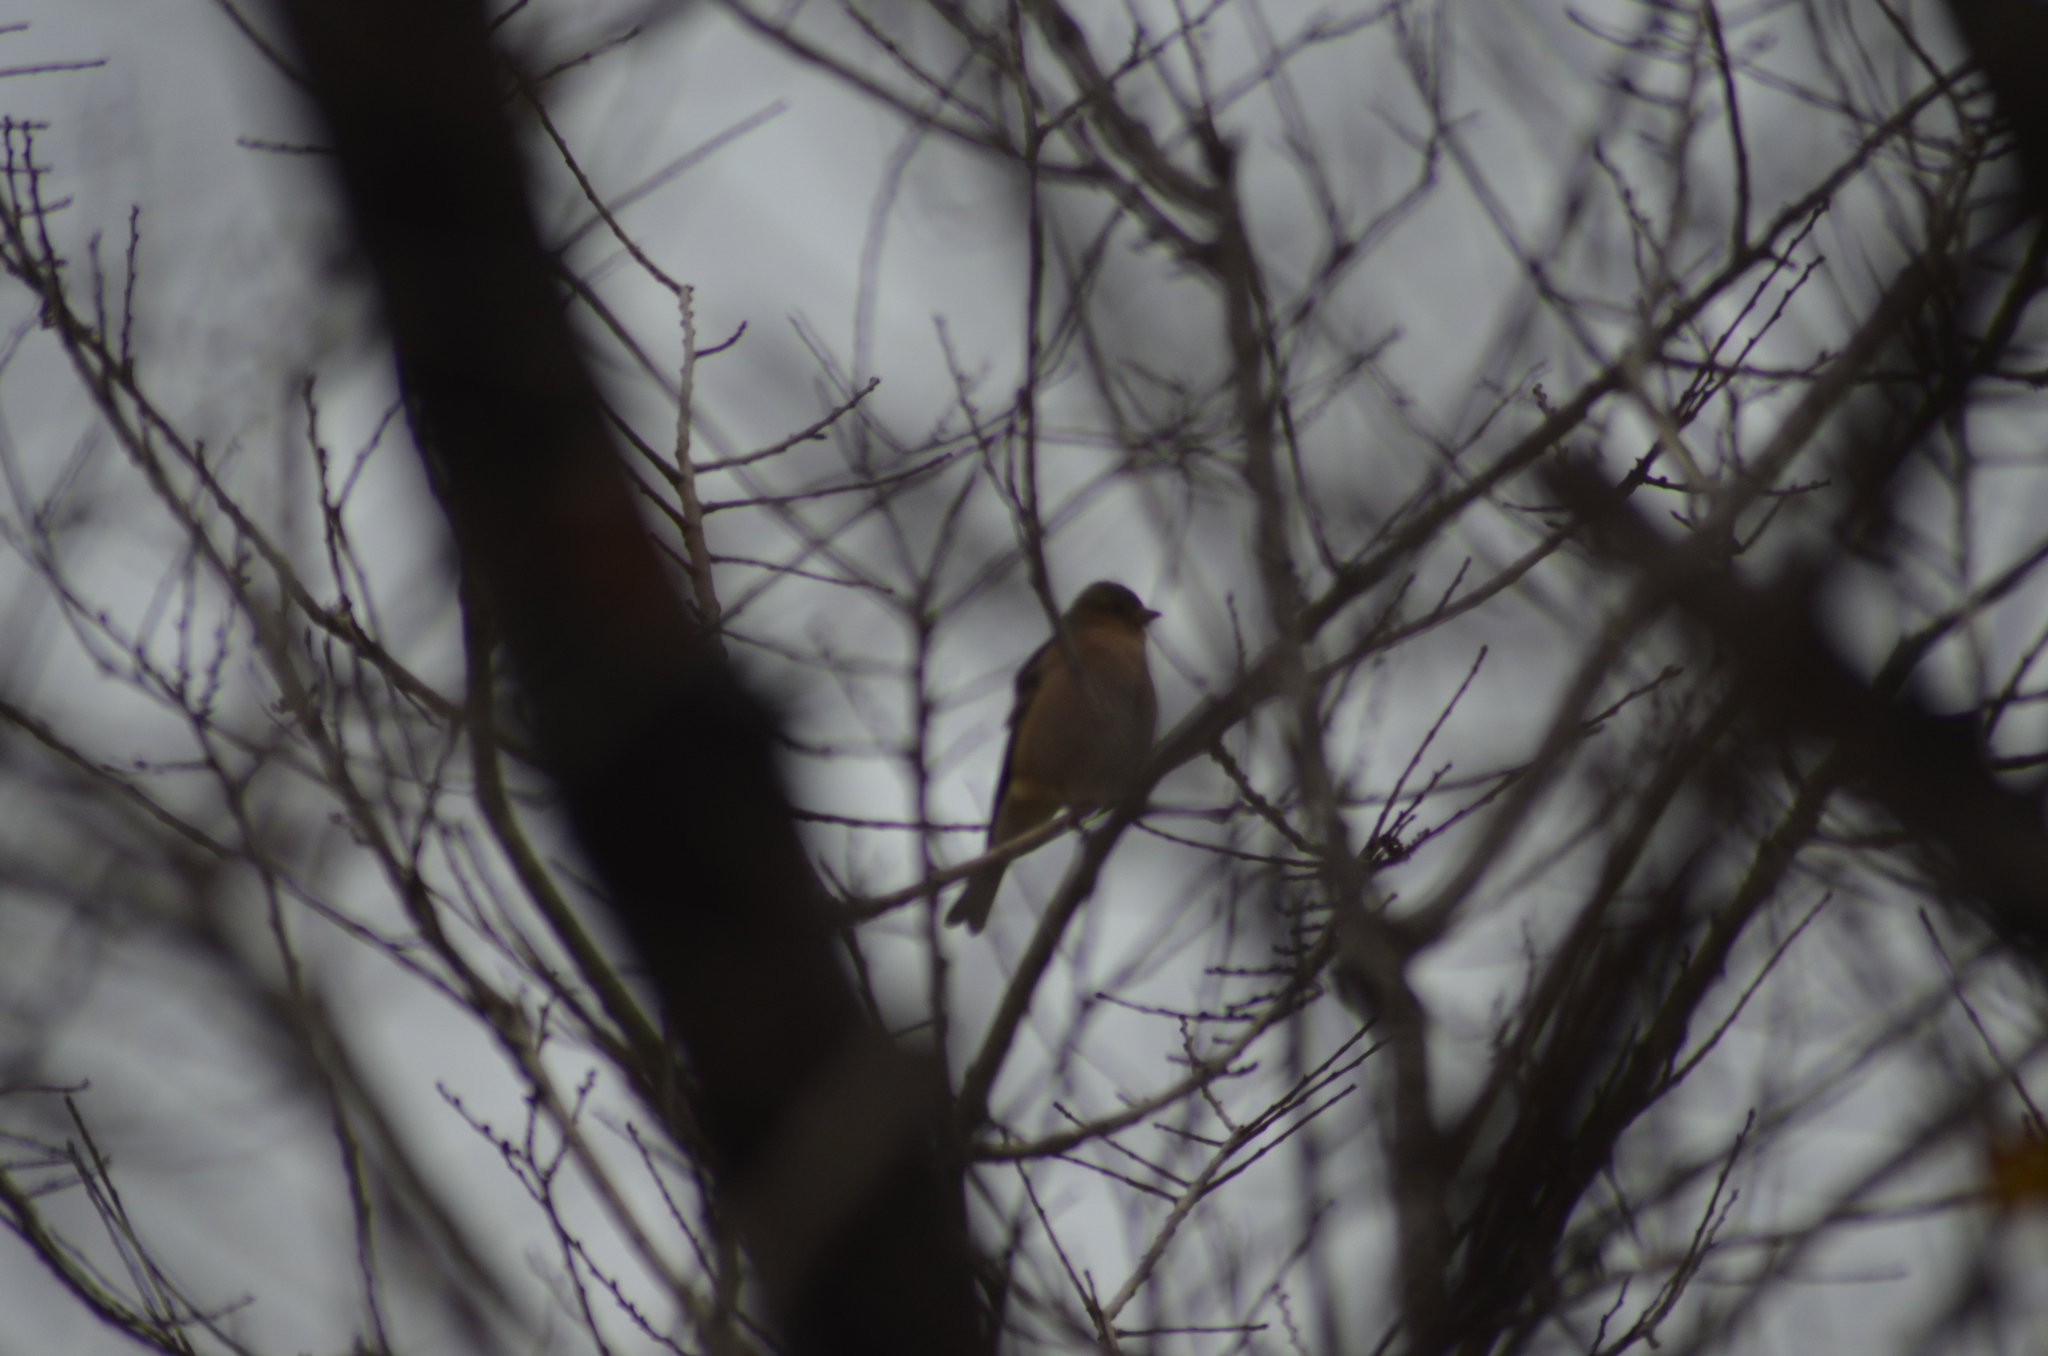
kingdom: Animalia
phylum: Chordata
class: Aves
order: Passeriformes
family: Fringillidae
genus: Fringilla
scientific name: Fringilla coelebs
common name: Common chaffinch
